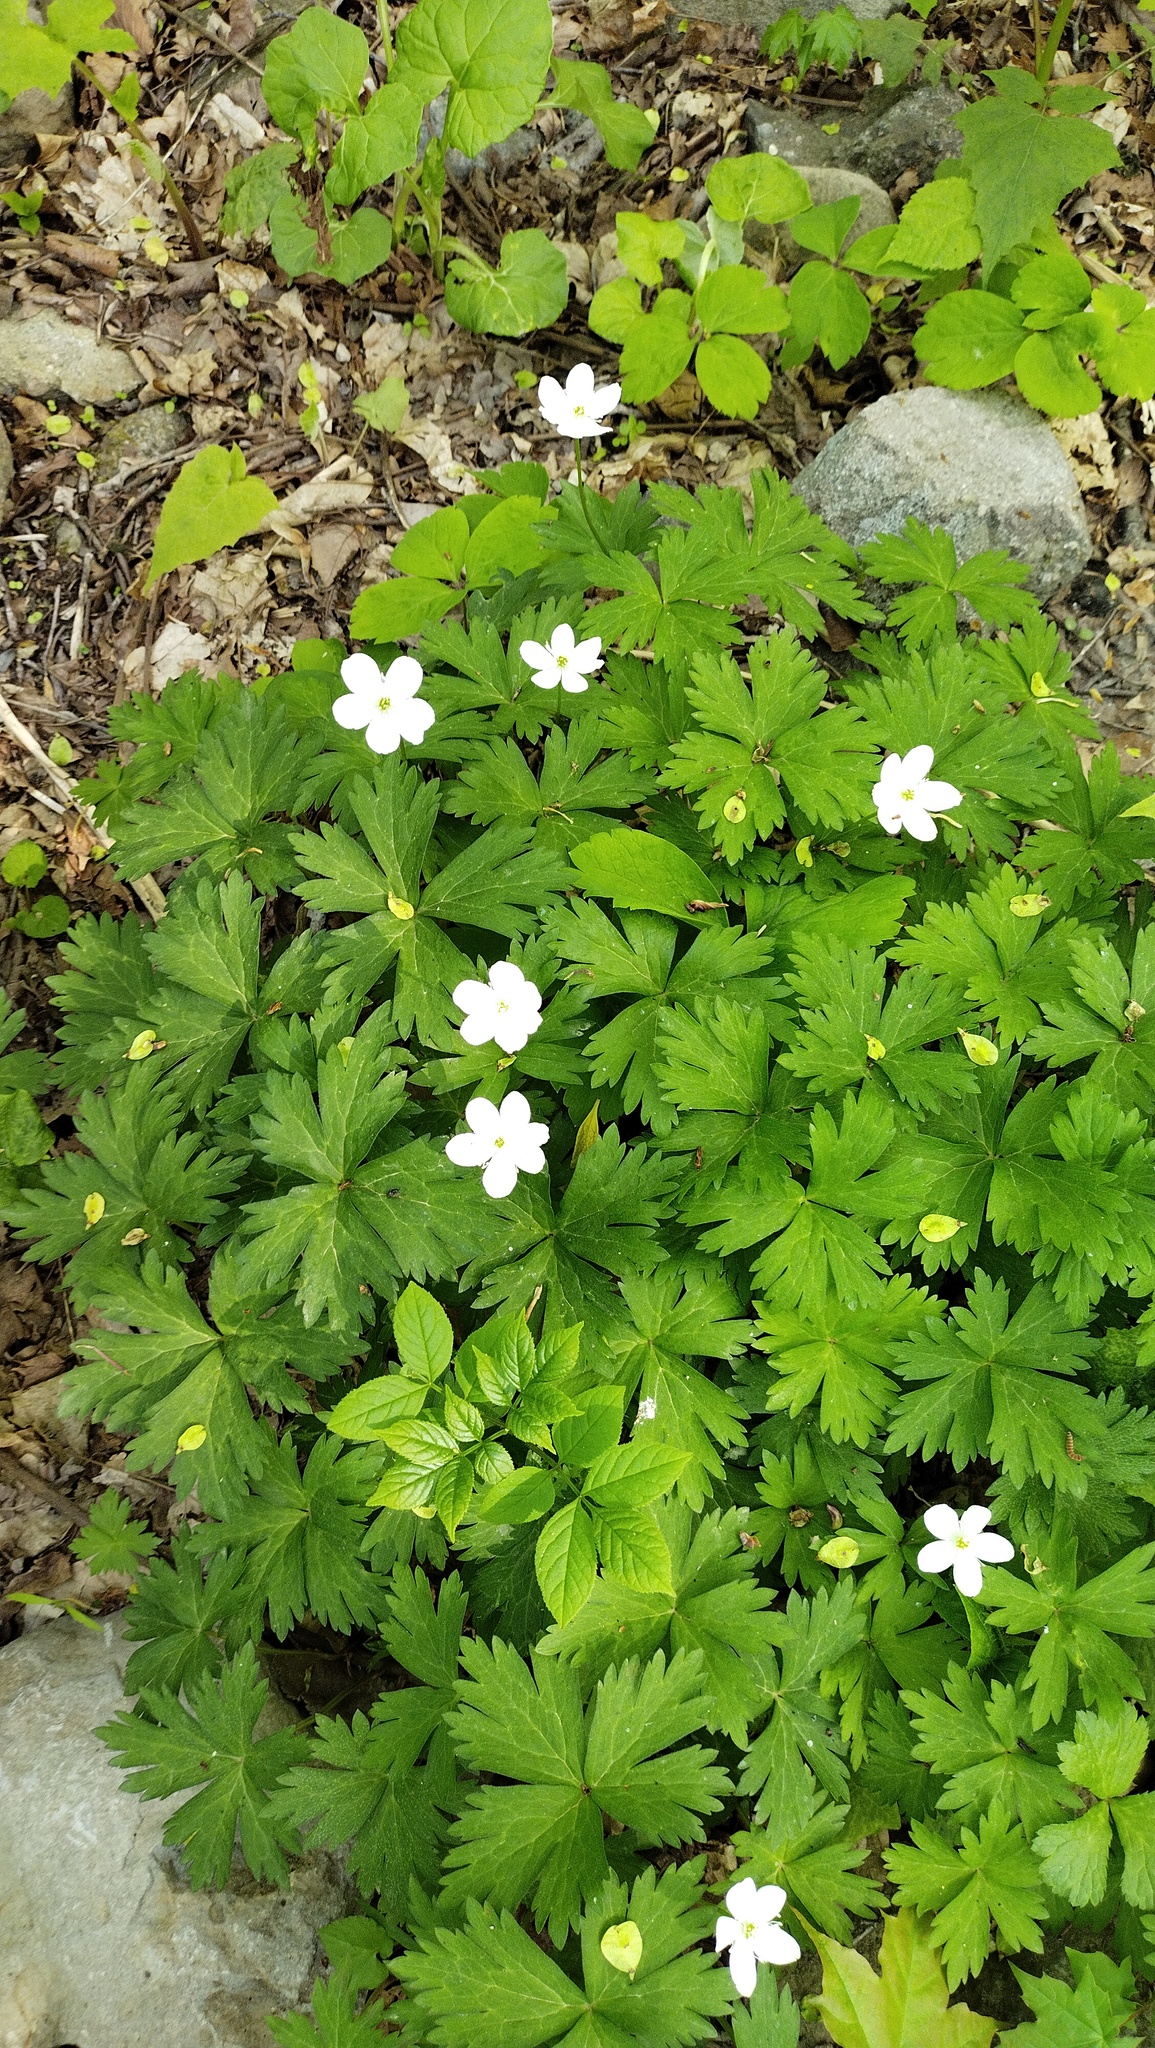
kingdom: Plantae
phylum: Tracheophyta
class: Magnoliopsida
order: Ranunculales
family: Ranunculaceae
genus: Anemonastrum
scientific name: Anemonastrum baicalense
